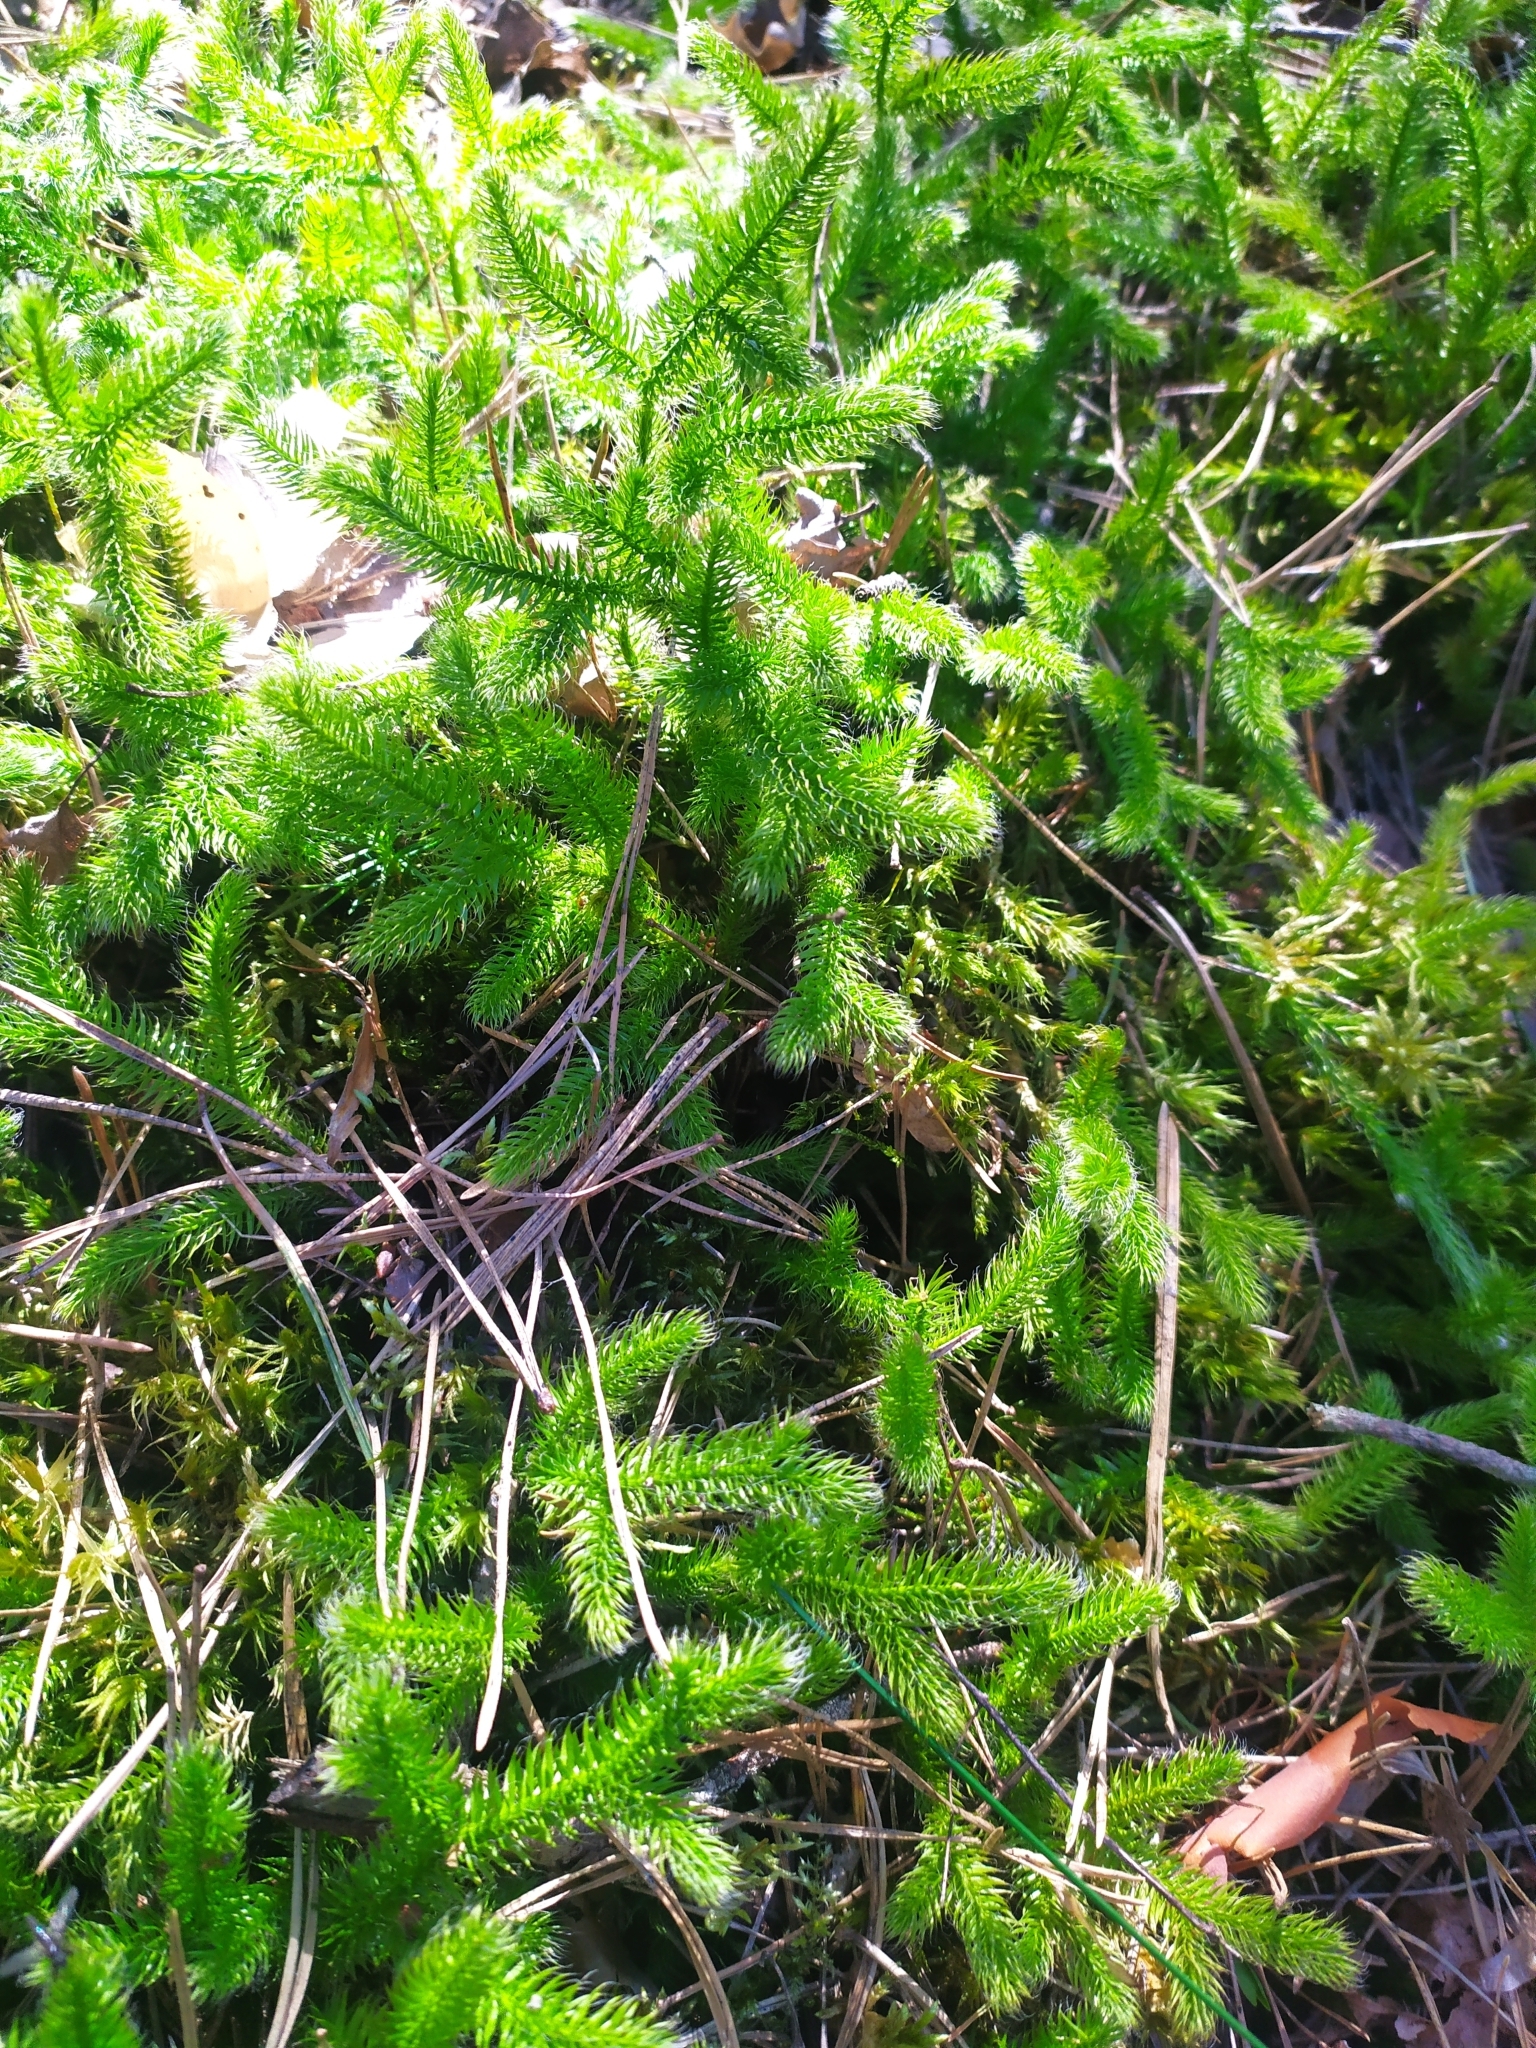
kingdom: Plantae
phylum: Tracheophyta
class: Lycopodiopsida
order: Lycopodiales
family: Lycopodiaceae
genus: Lycopodium
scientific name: Lycopodium clavatum
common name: Stag's-horn clubmoss
